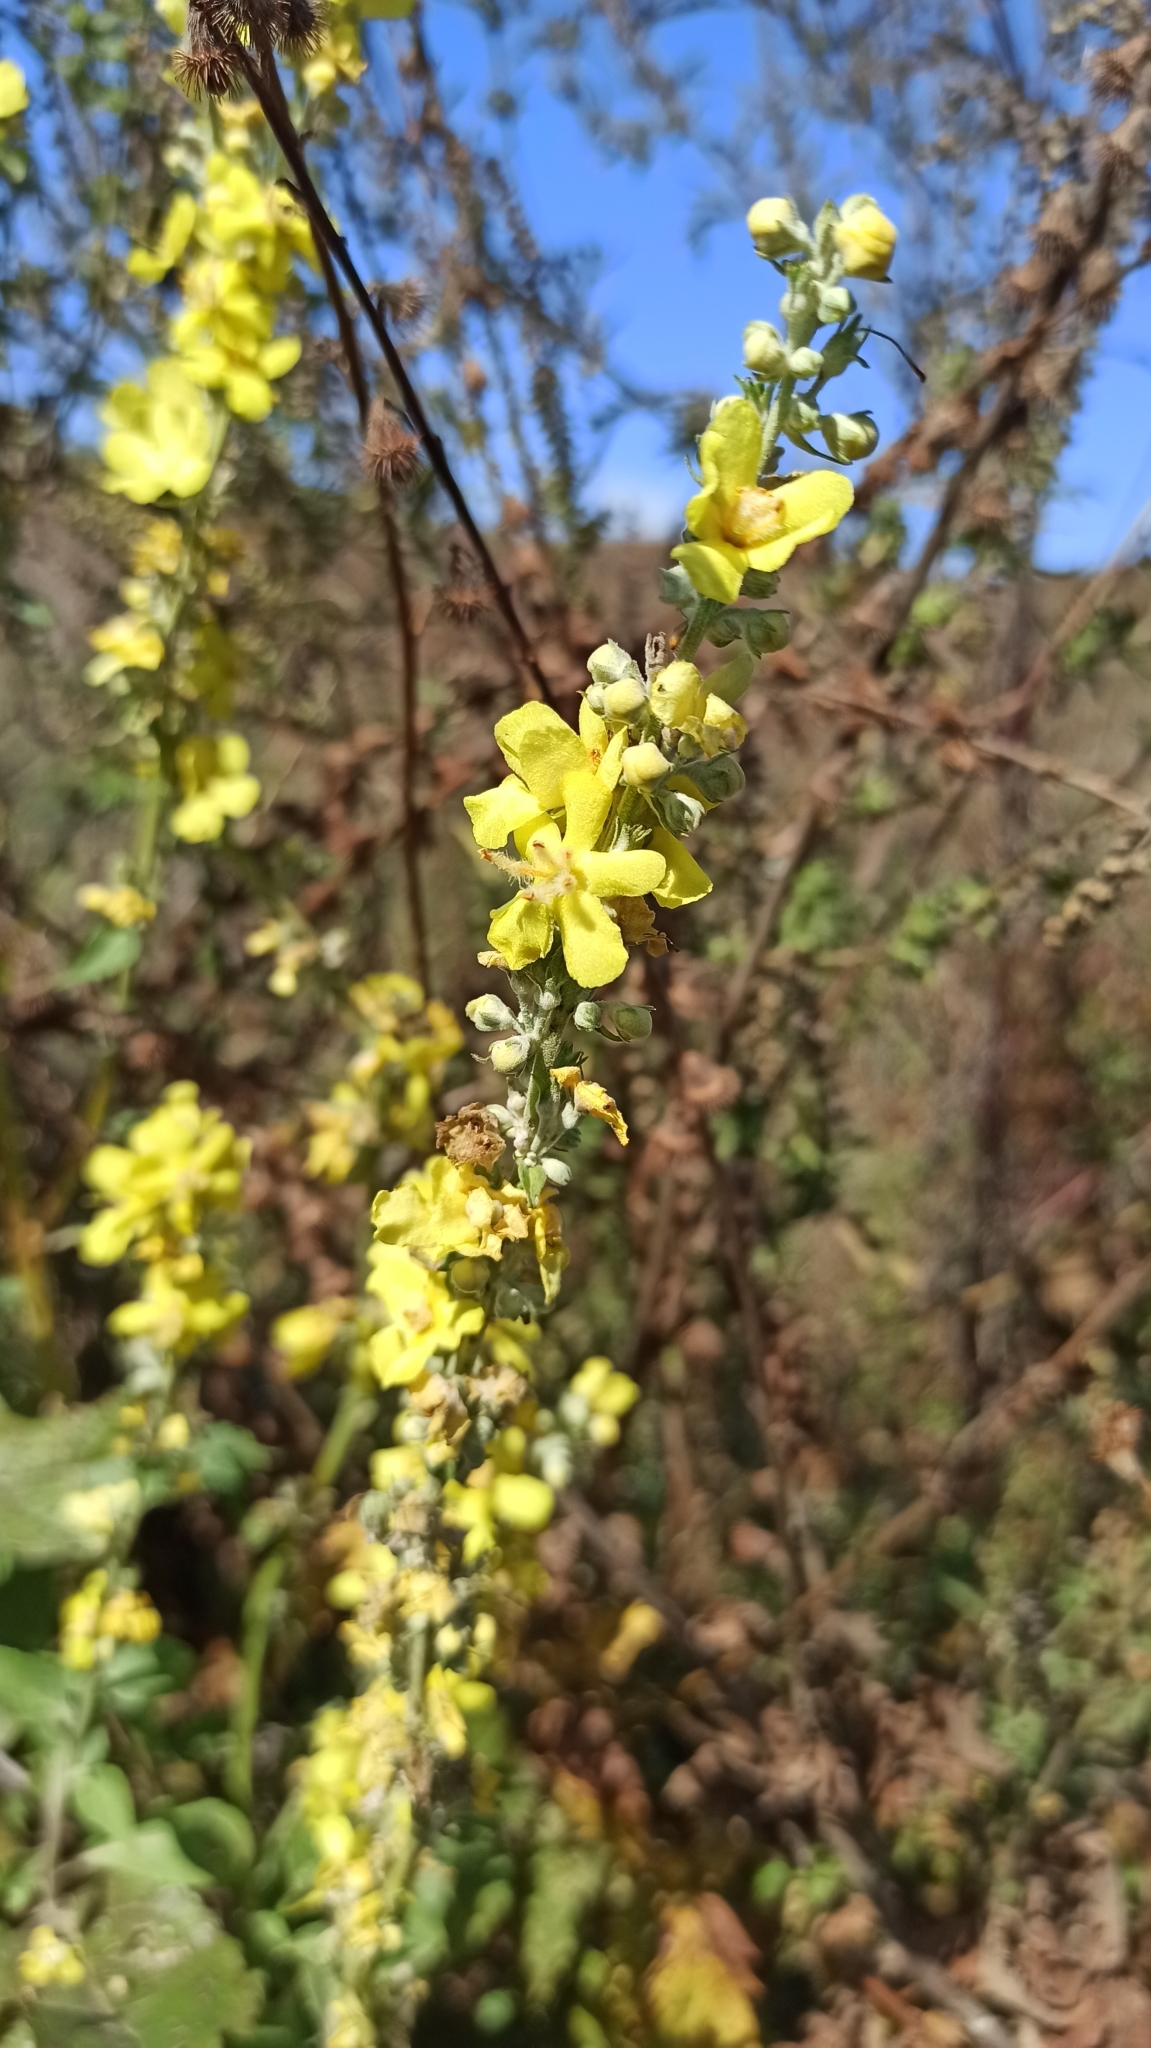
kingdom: Plantae
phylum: Tracheophyta
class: Magnoliopsida
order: Lamiales
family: Scrophulariaceae
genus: Verbascum
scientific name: Verbascum lychnitis
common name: White mullein
